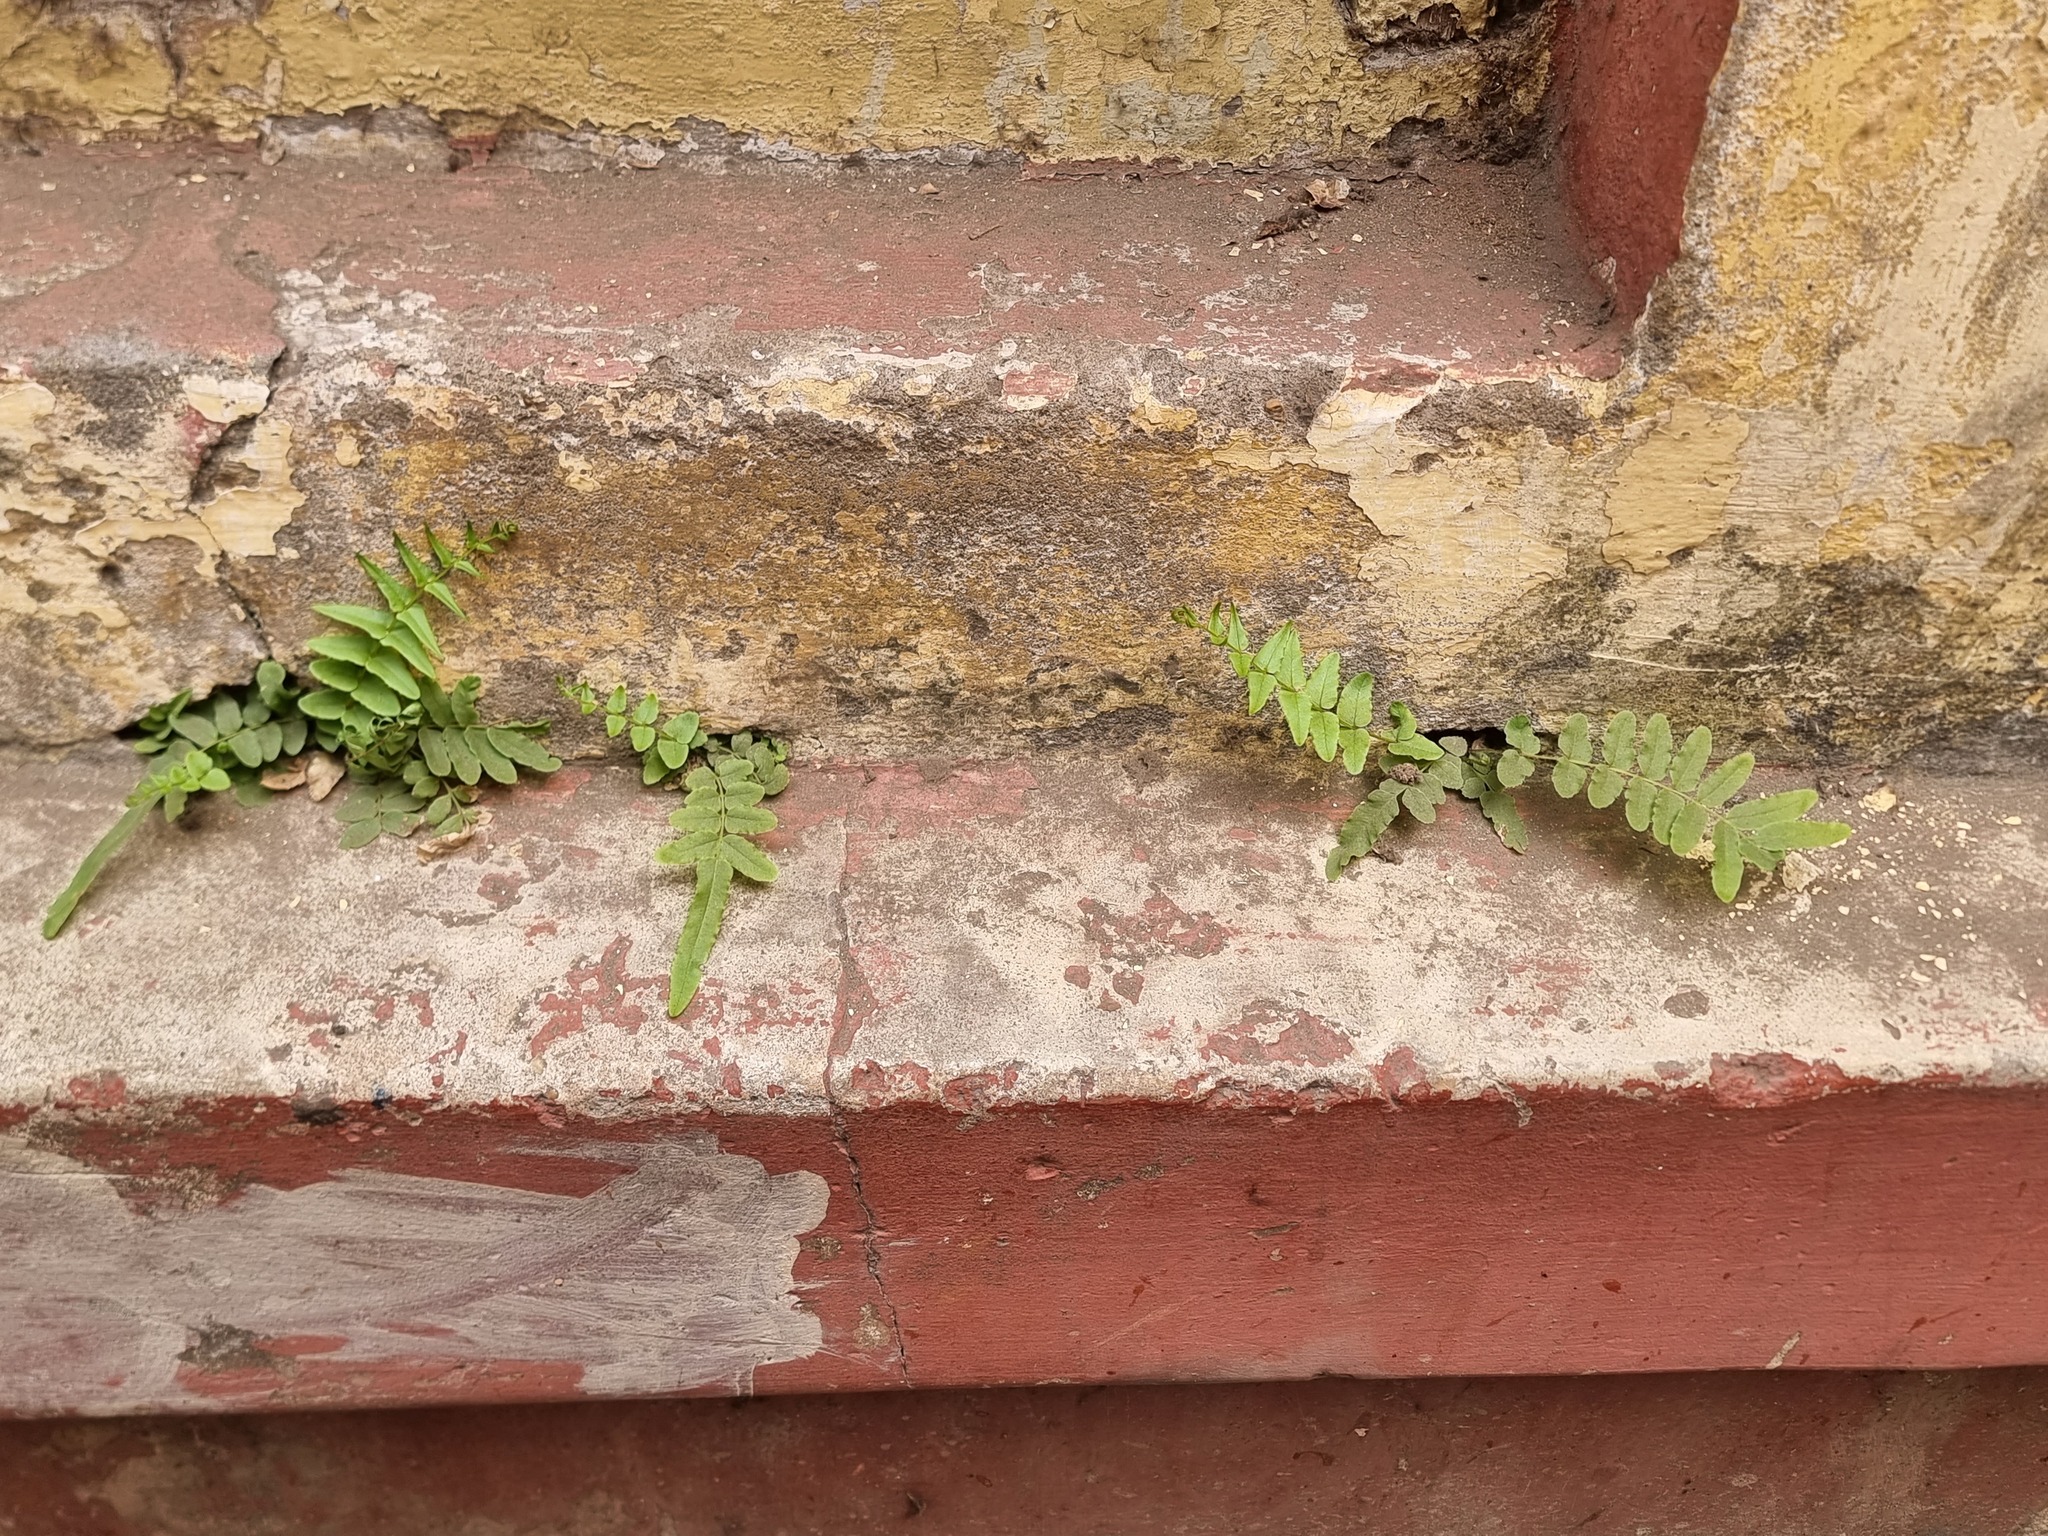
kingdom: Plantae
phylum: Tracheophyta
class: Polypodiopsida
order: Polypodiales
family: Pteridaceae
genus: Pteris
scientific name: Pteris vittata
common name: Ladder brake
